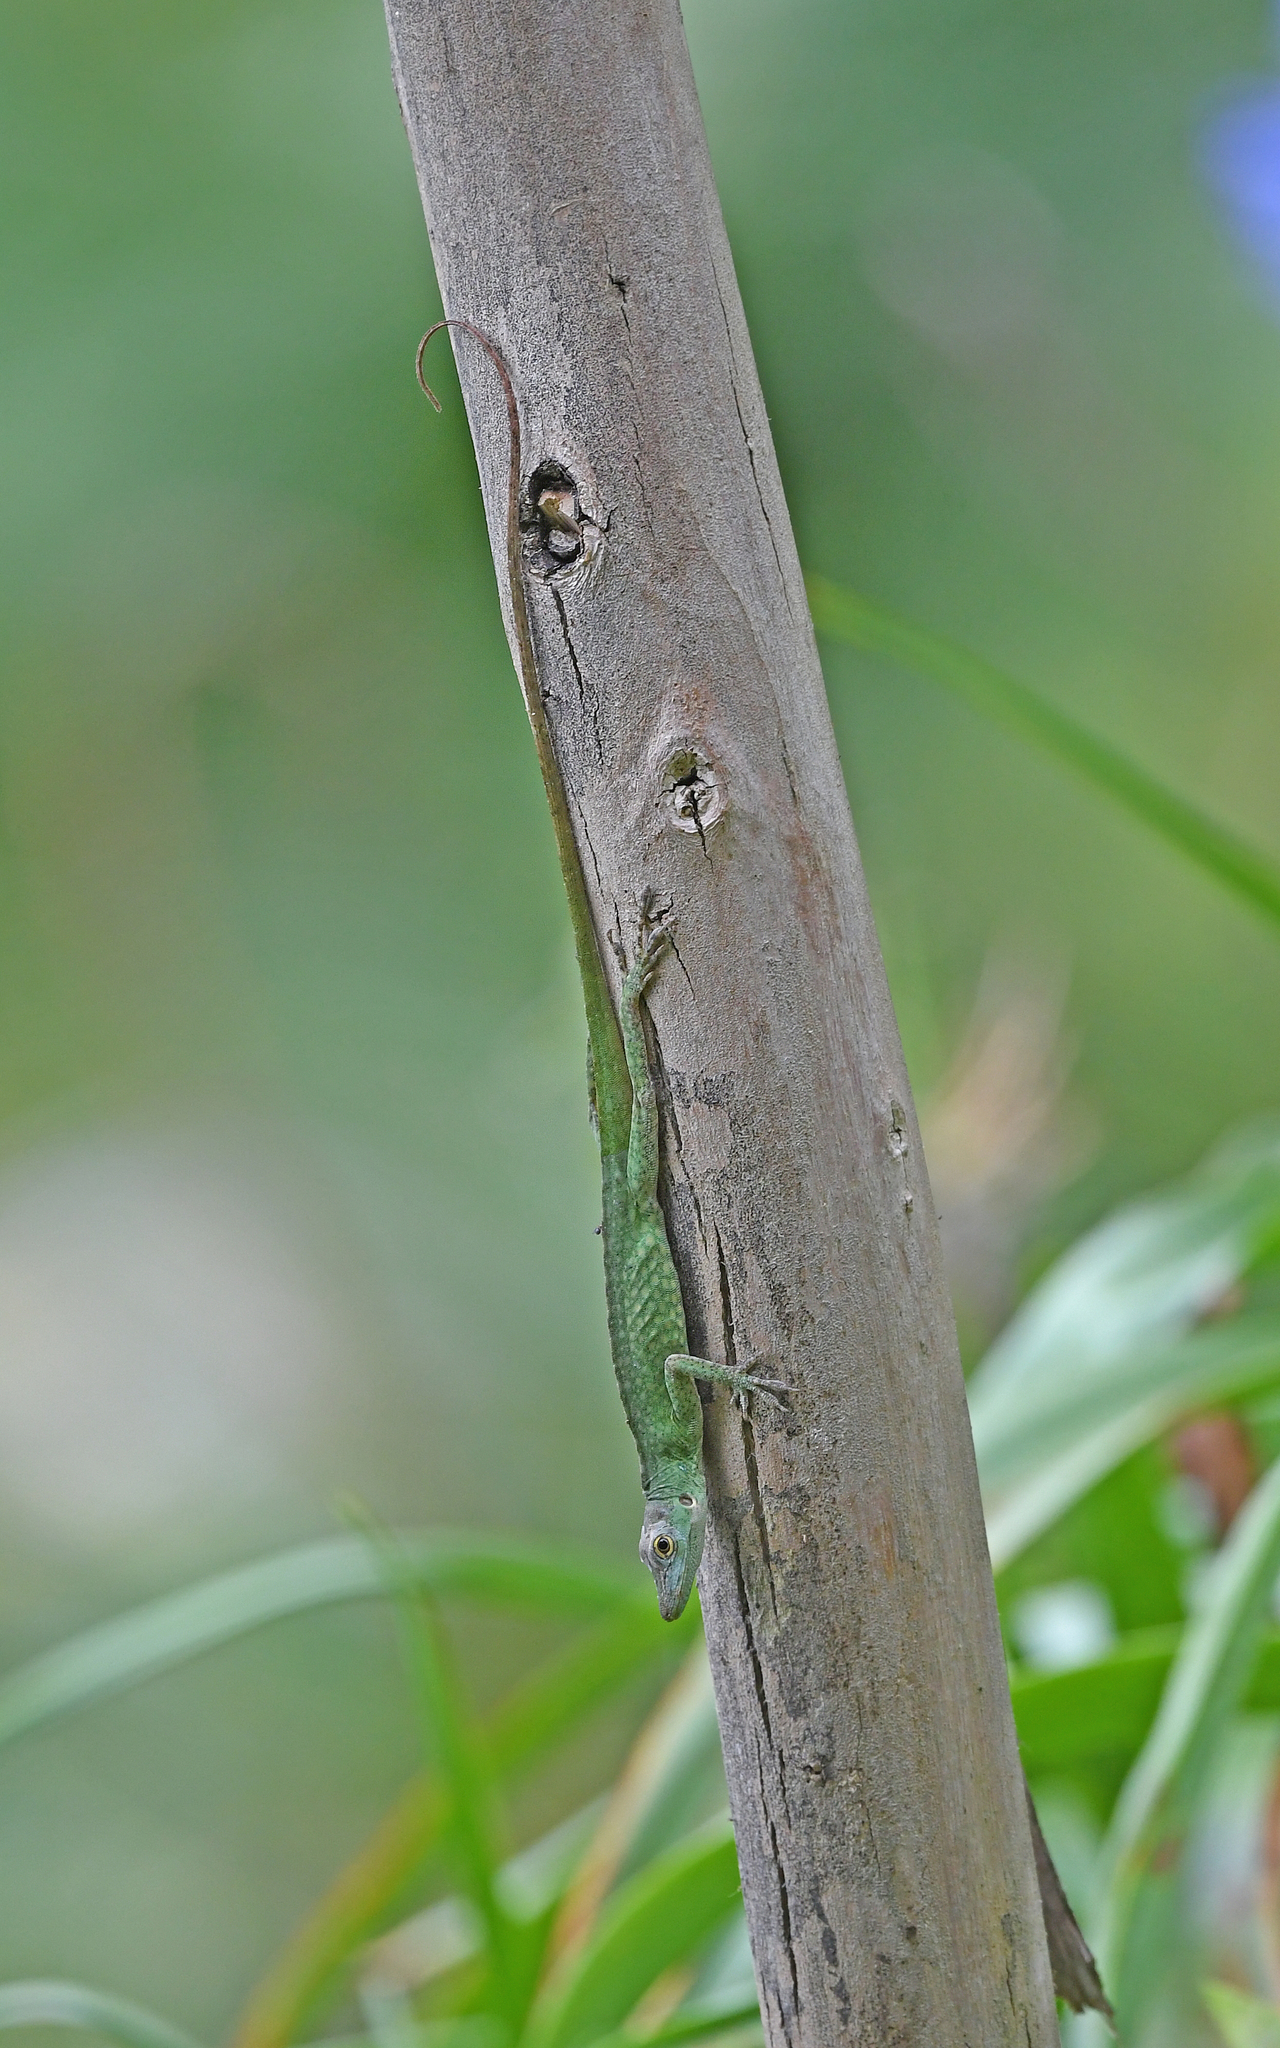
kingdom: Animalia
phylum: Chordata
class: Squamata
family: Dactyloidae
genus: Anolis
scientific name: Anolis huilae
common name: Huila anole
